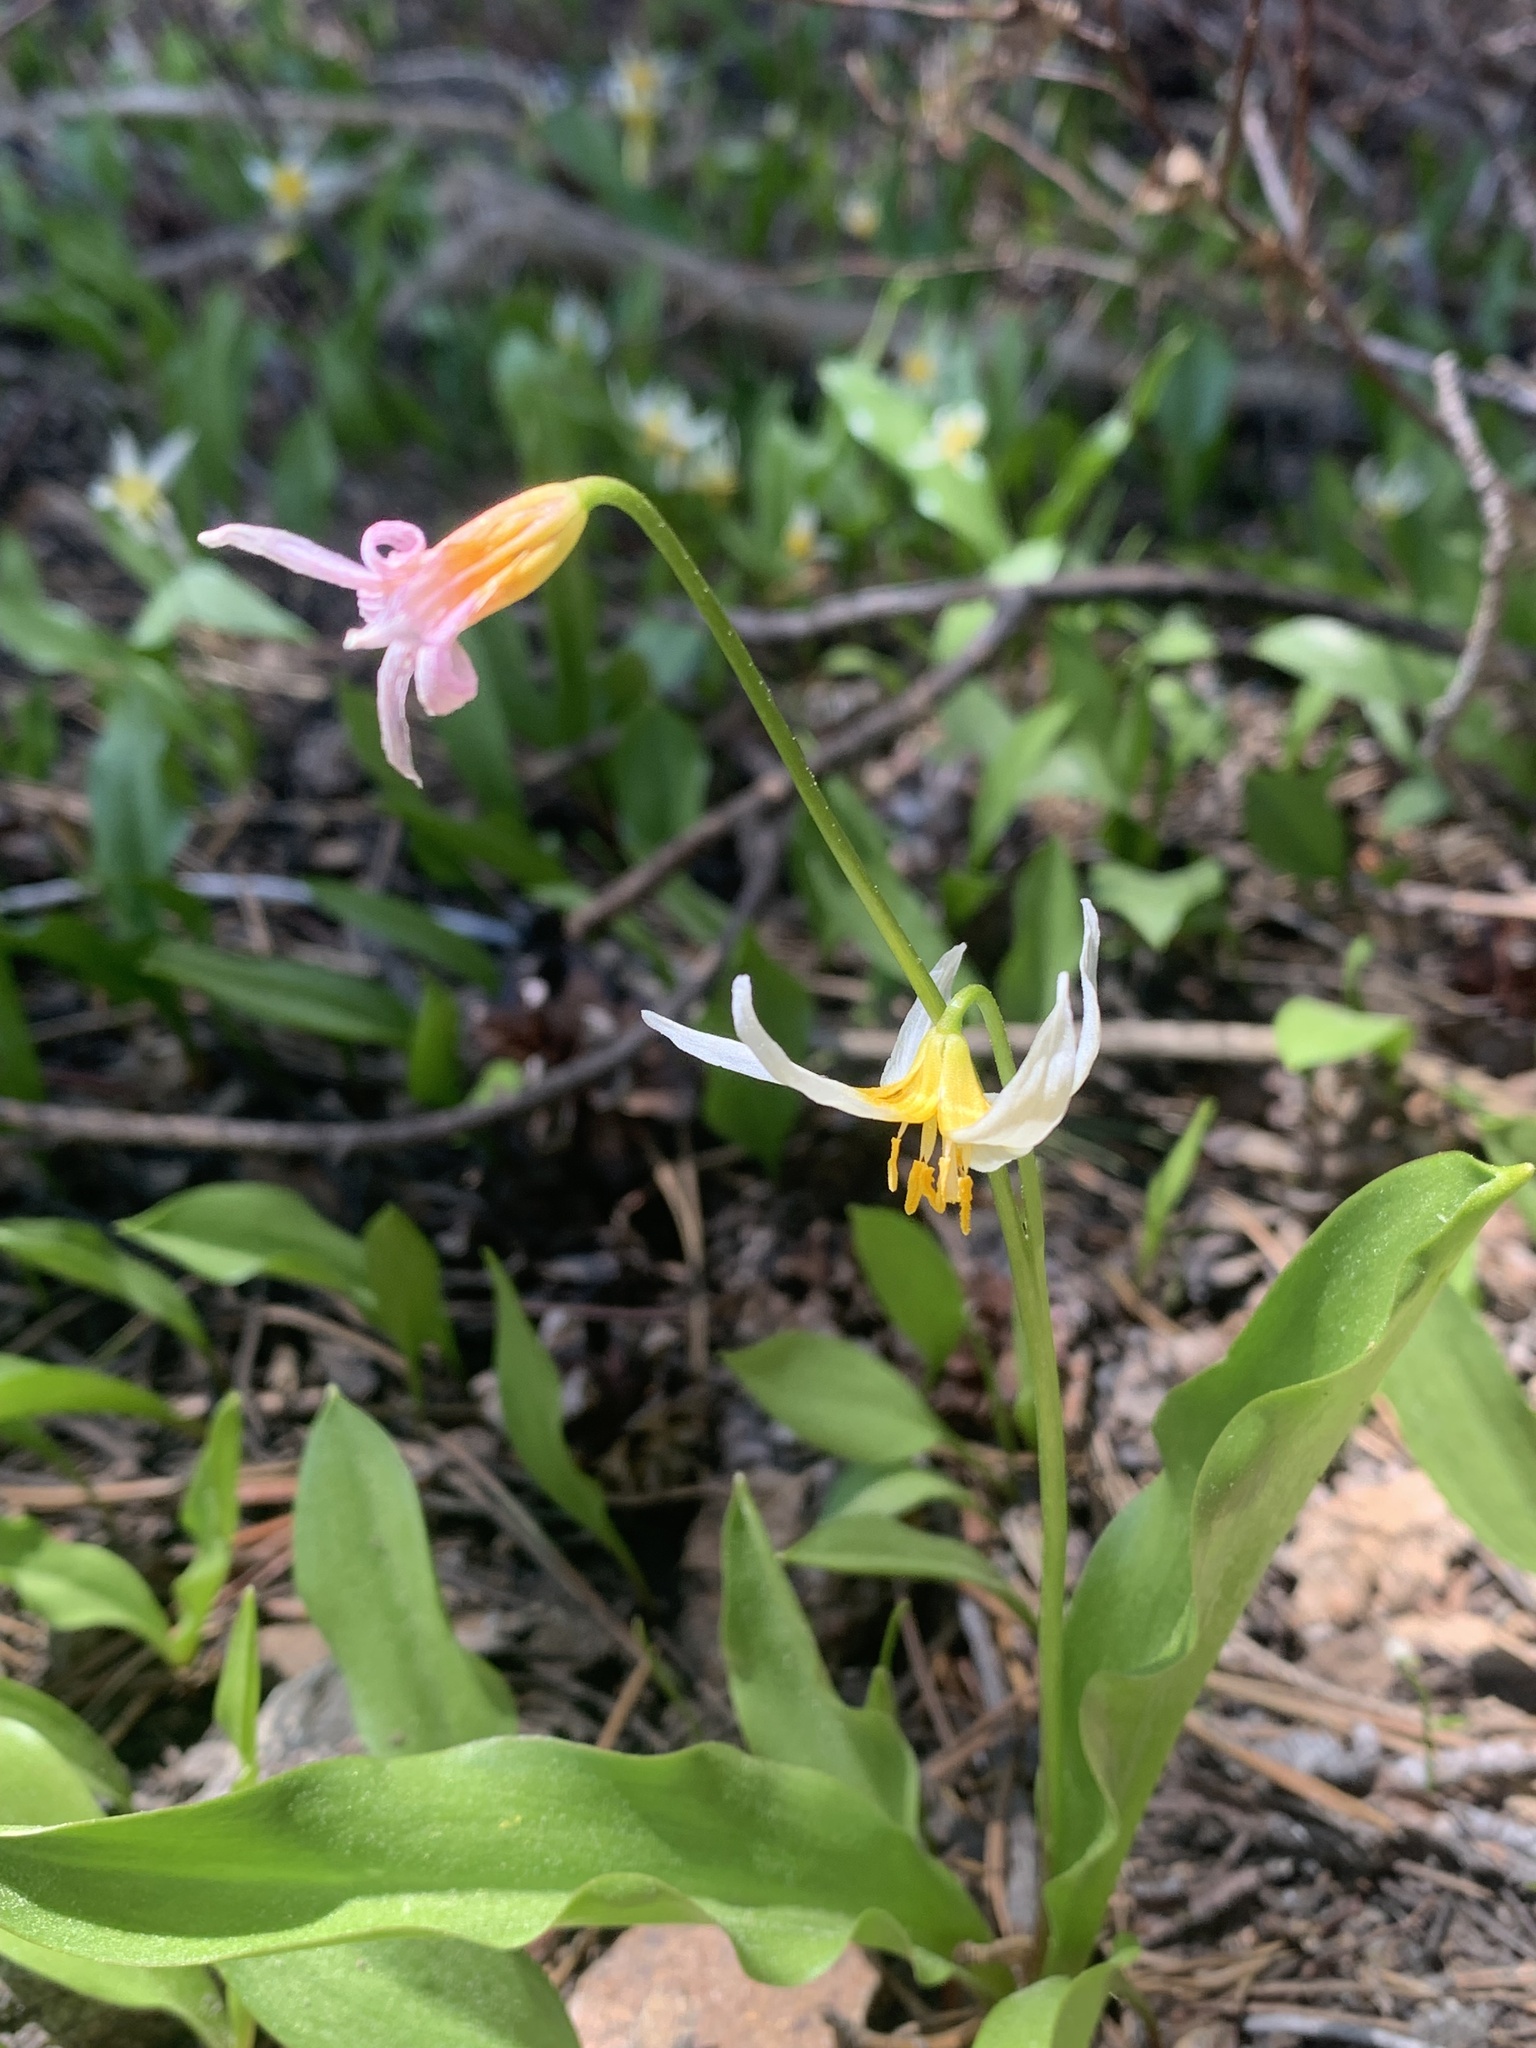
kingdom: Plantae
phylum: Tracheophyta
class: Liliopsida
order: Liliales
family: Liliaceae
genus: Erythronium
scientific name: Erythronium purpurascens
